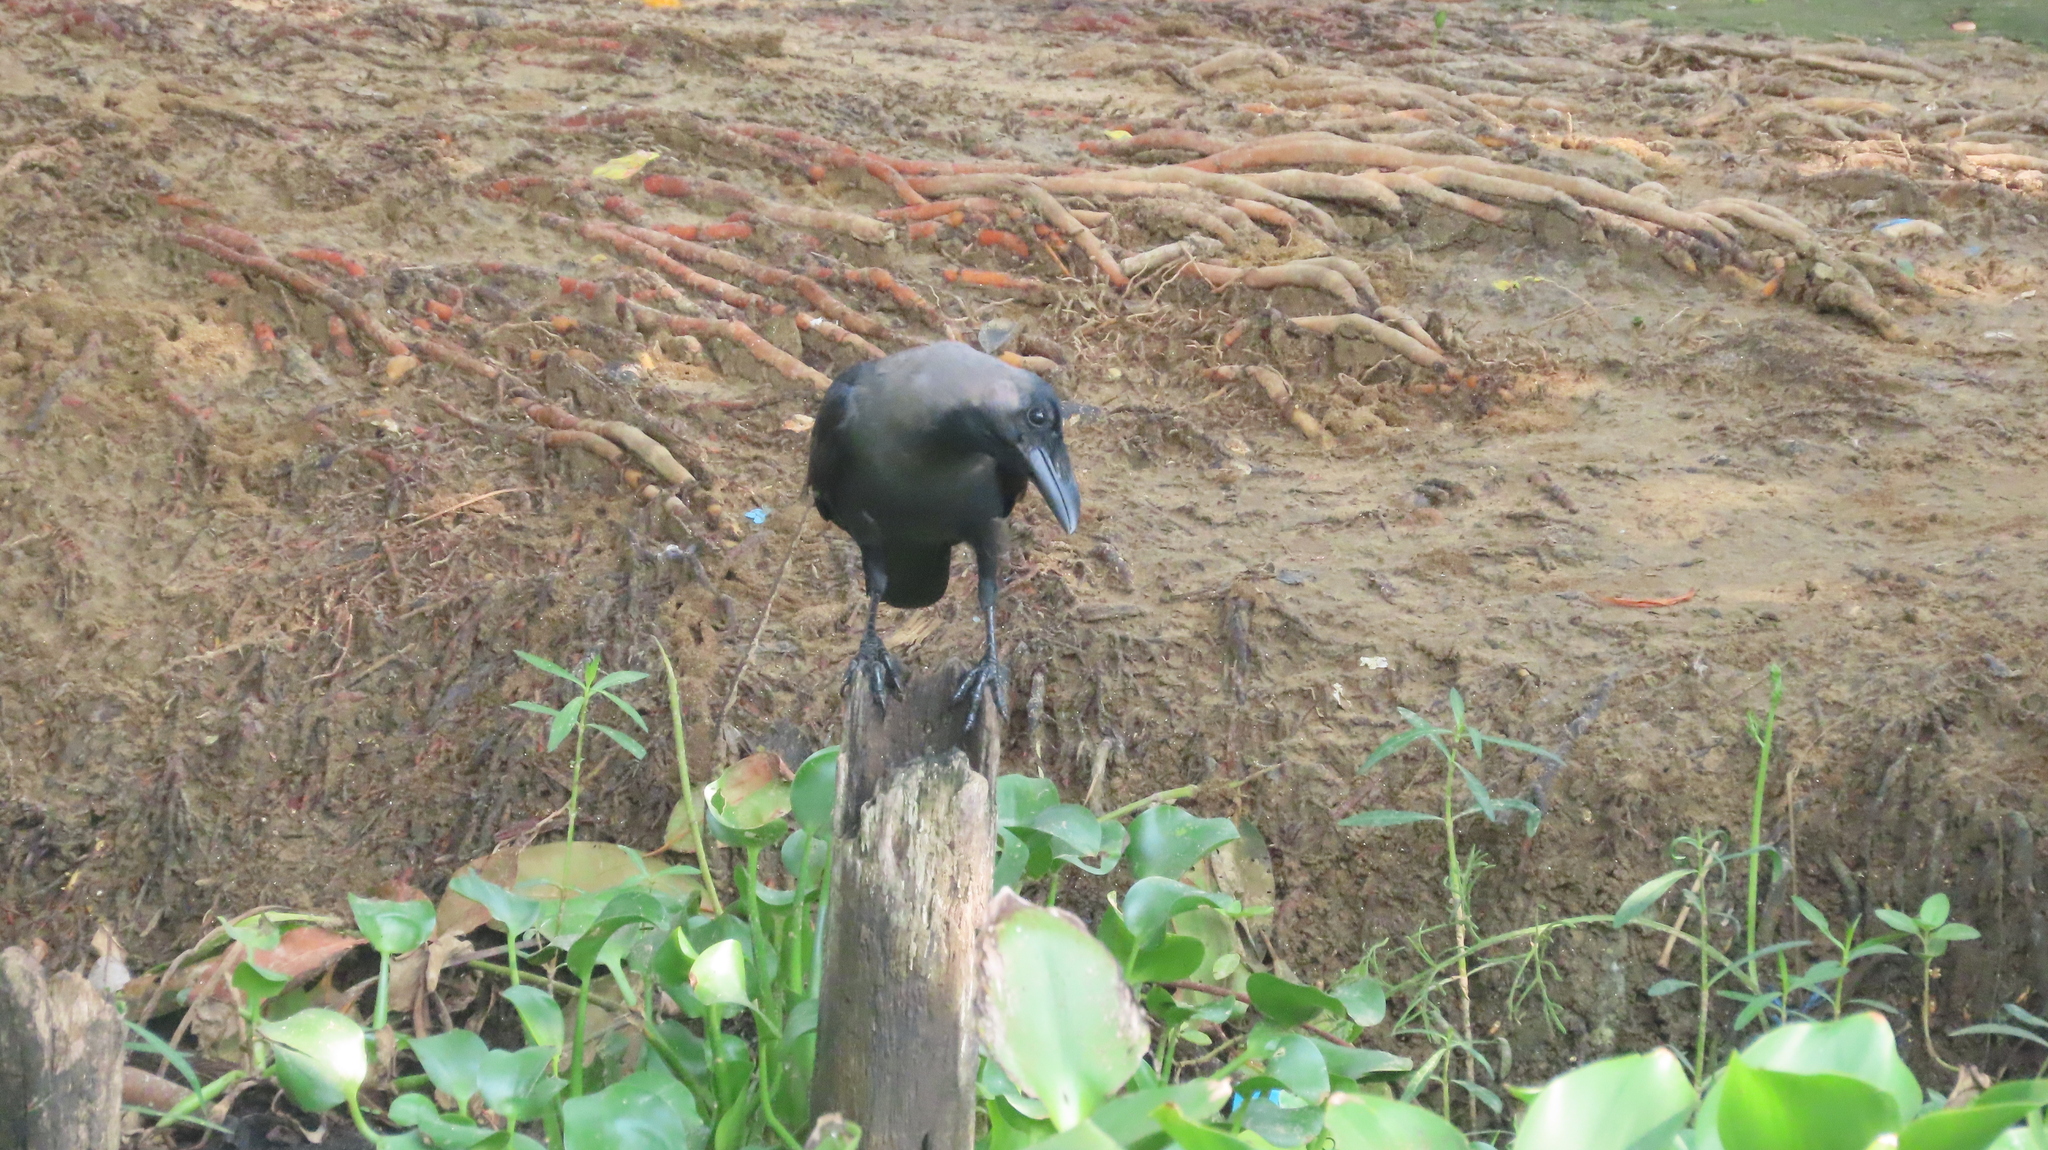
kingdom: Animalia
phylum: Chordata
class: Aves
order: Passeriformes
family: Corvidae
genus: Corvus
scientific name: Corvus splendens
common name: House crow
